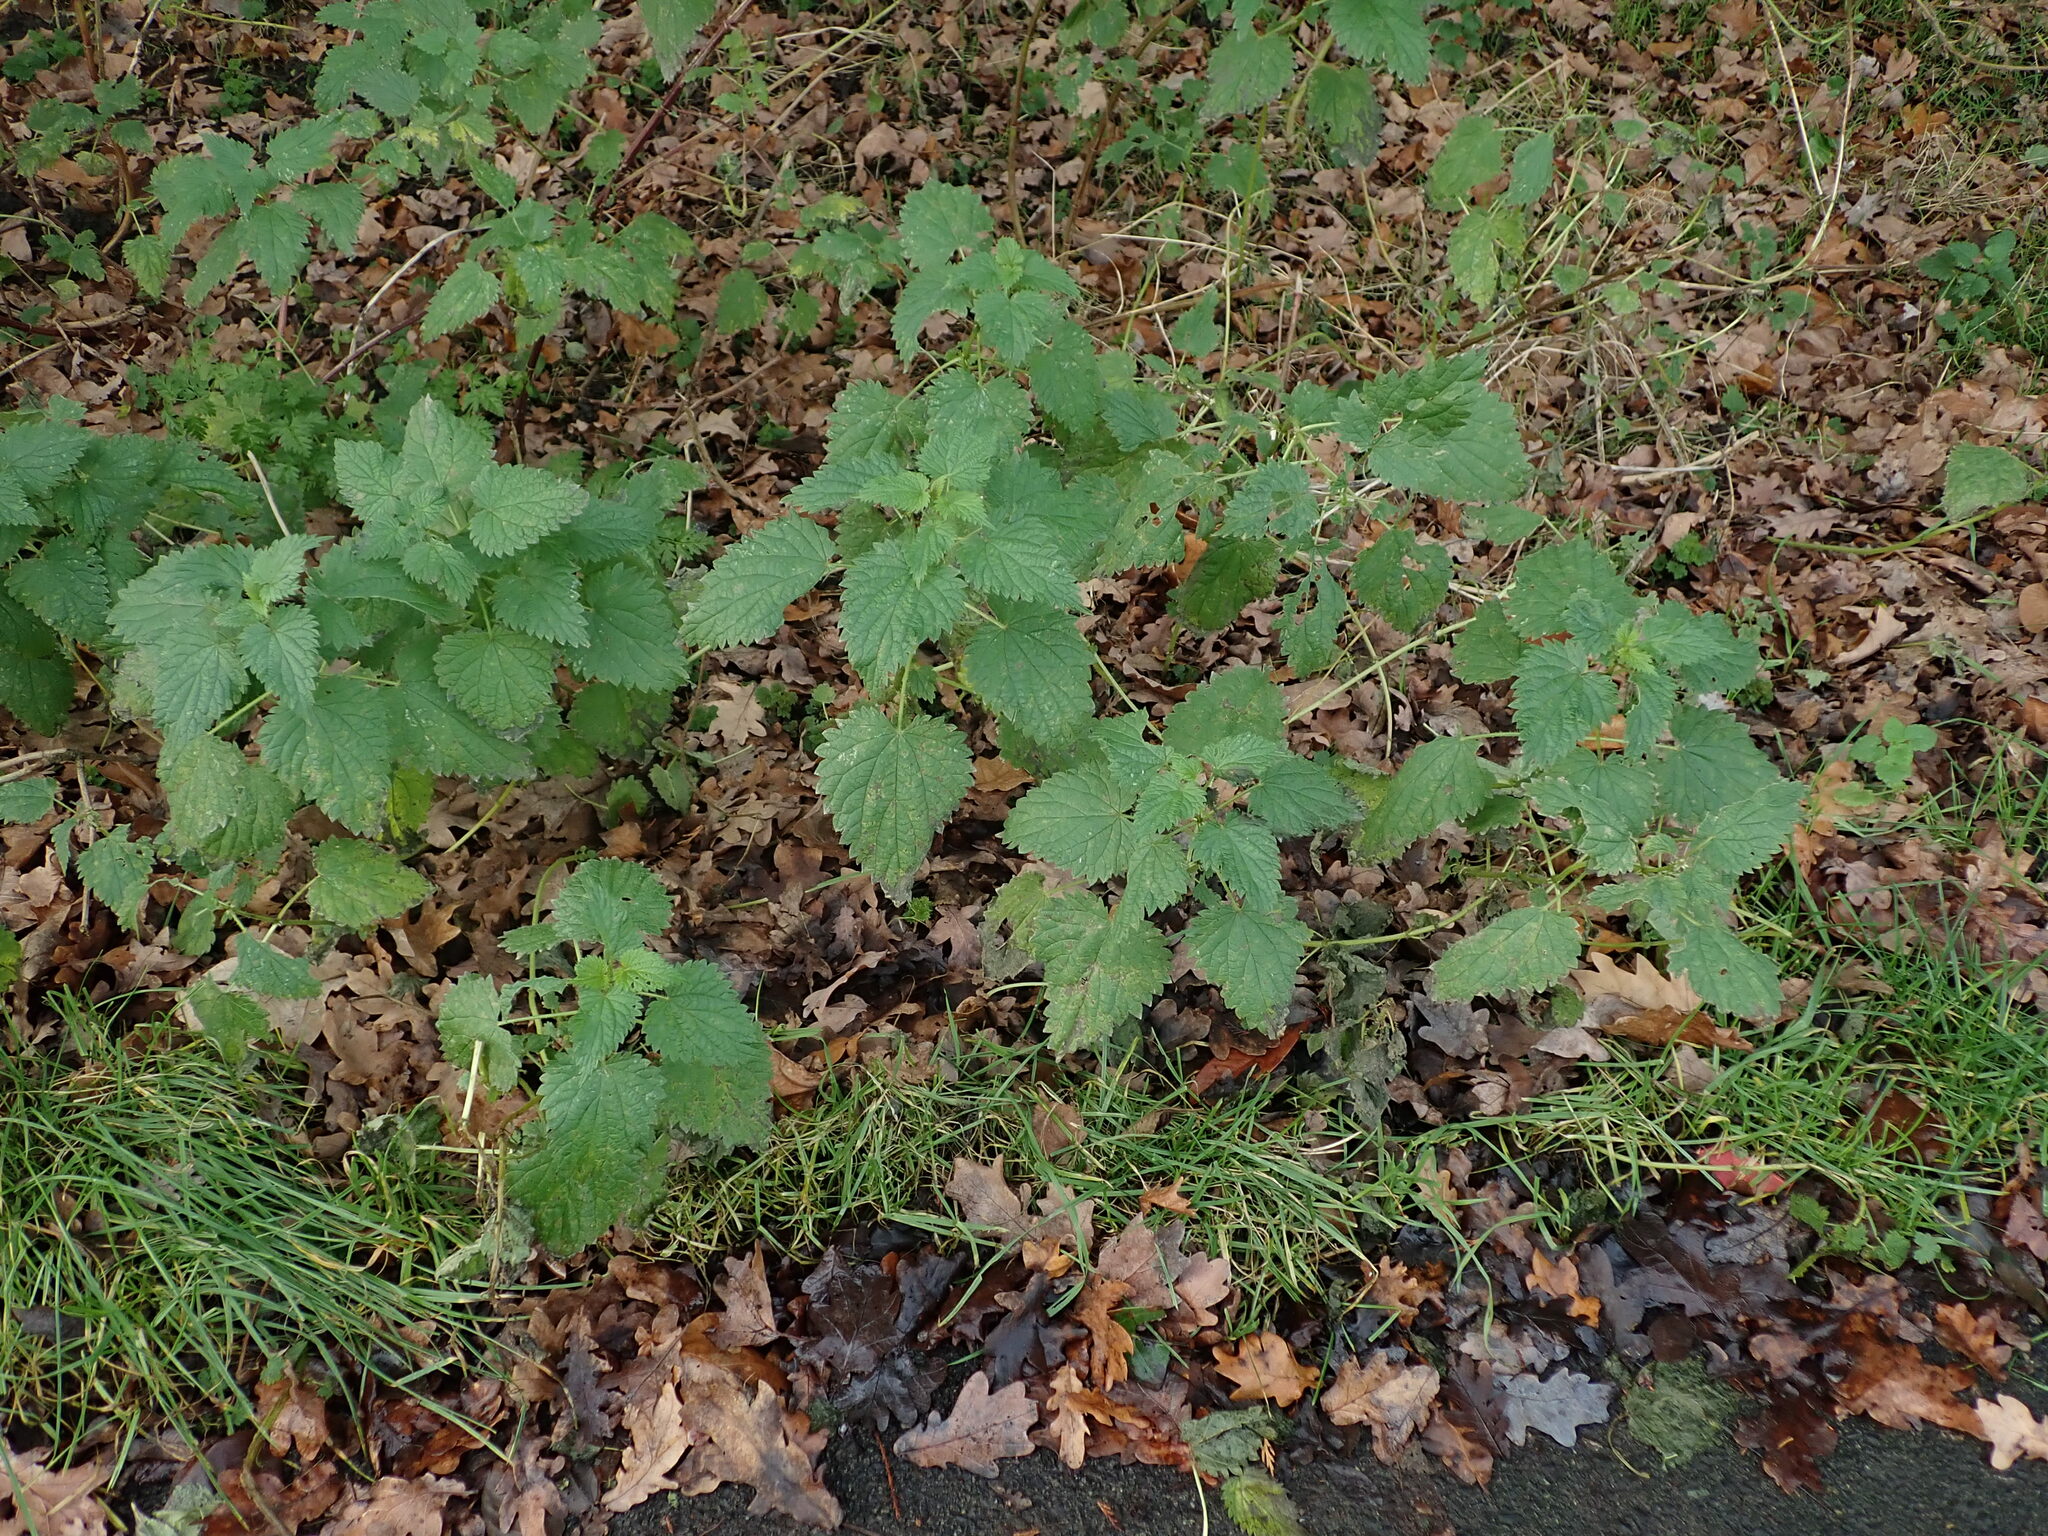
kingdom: Plantae
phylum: Tracheophyta
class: Magnoliopsida
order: Rosales
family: Urticaceae
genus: Urtica
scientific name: Urtica dioica
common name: Common nettle
